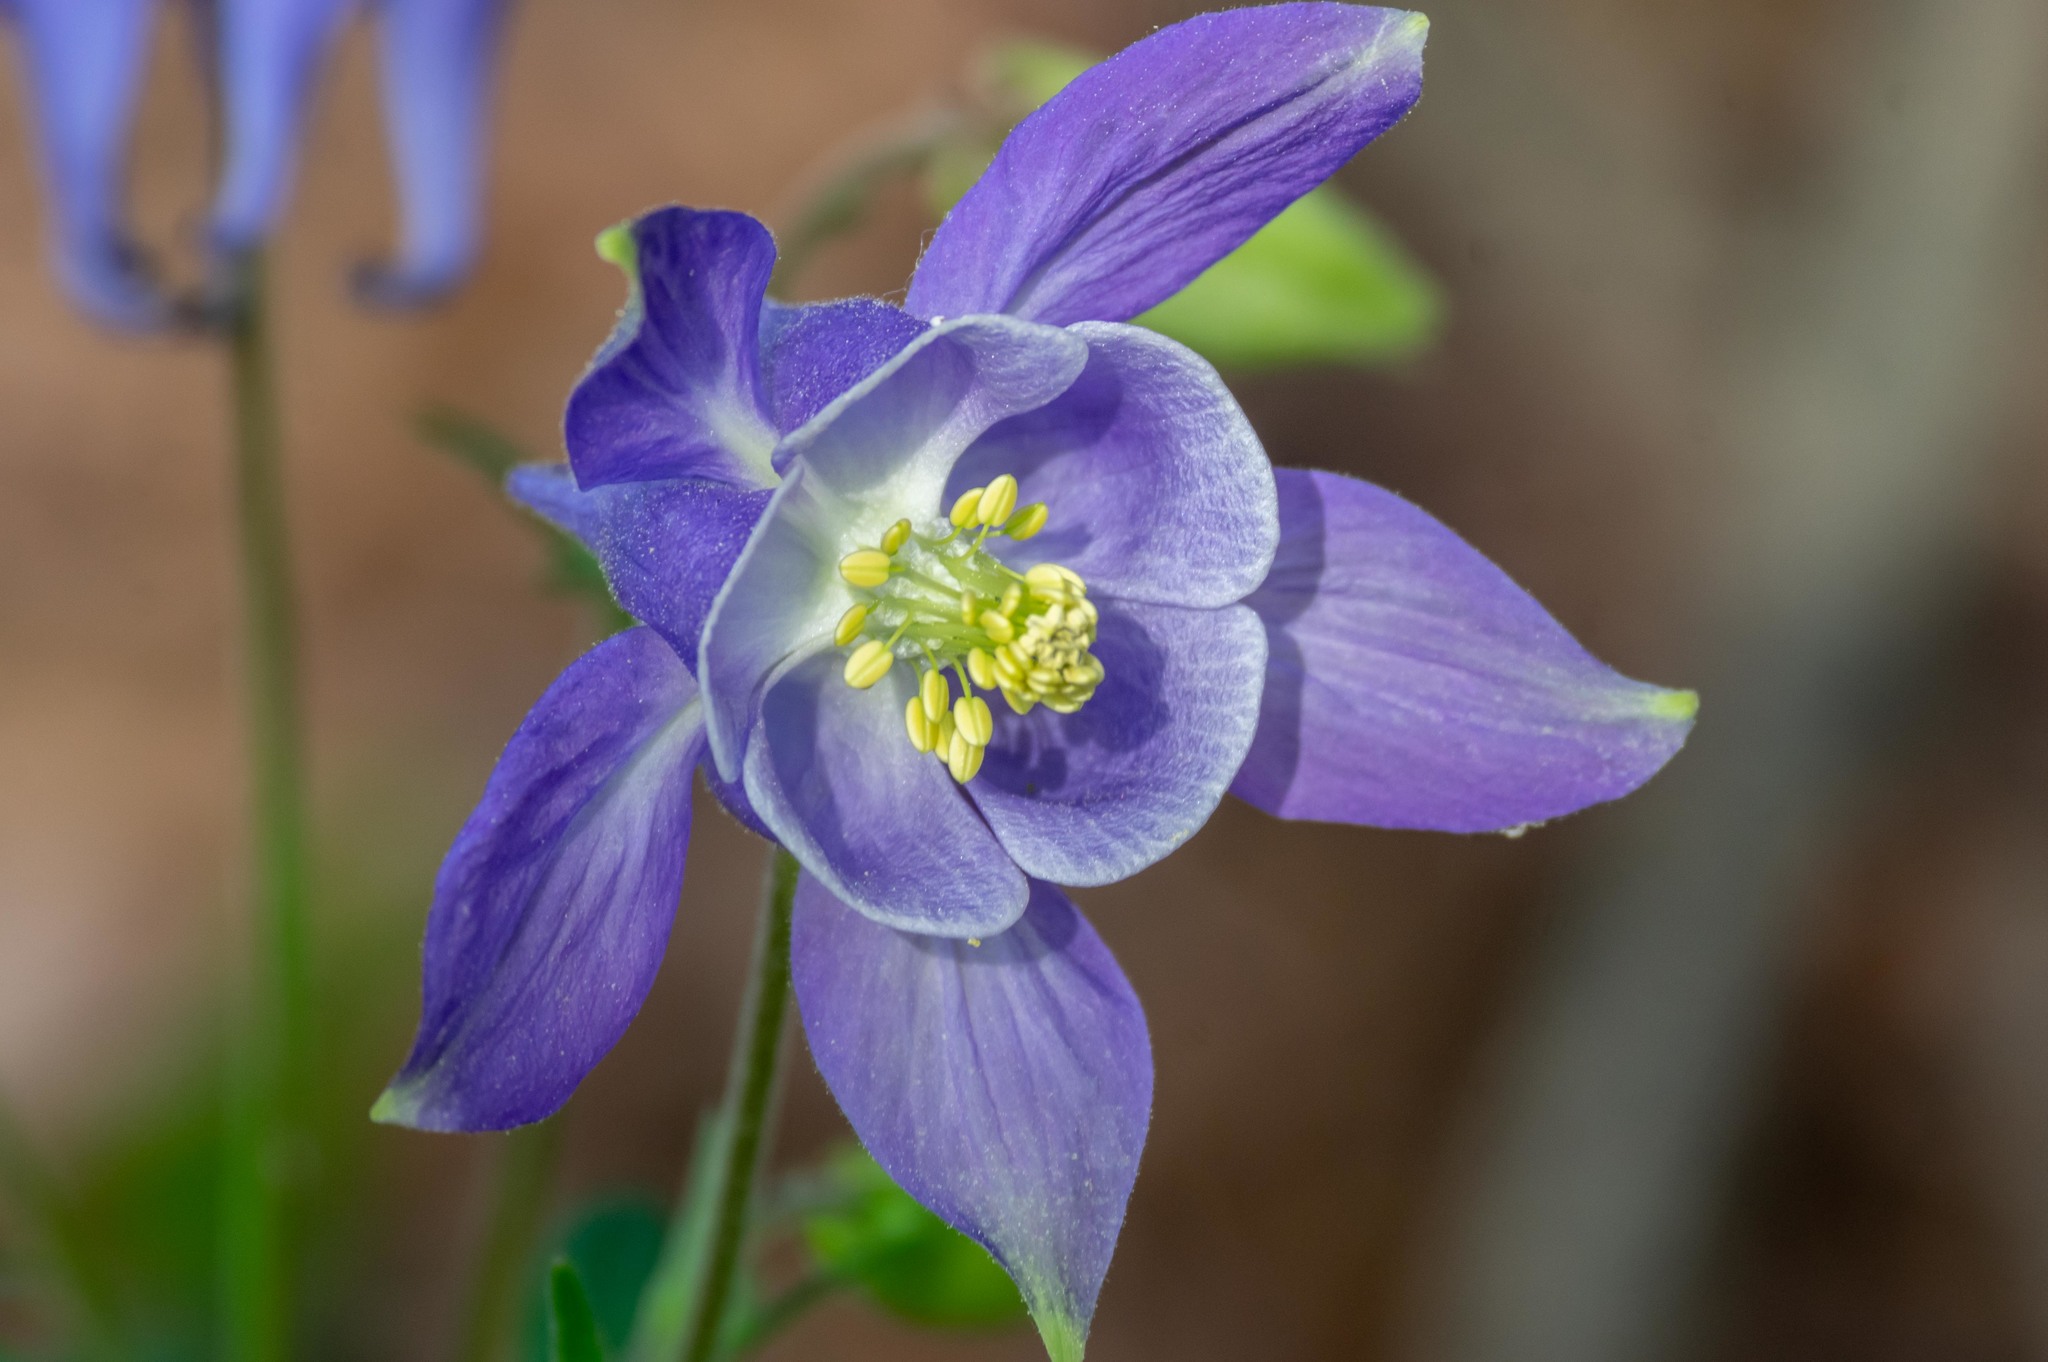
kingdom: Plantae
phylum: Tracheophyta
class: Magnoliopsida
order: Ranunculales
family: Ranunculaceae
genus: Aquilegia
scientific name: Aquilegia vulgaris
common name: Columbine
